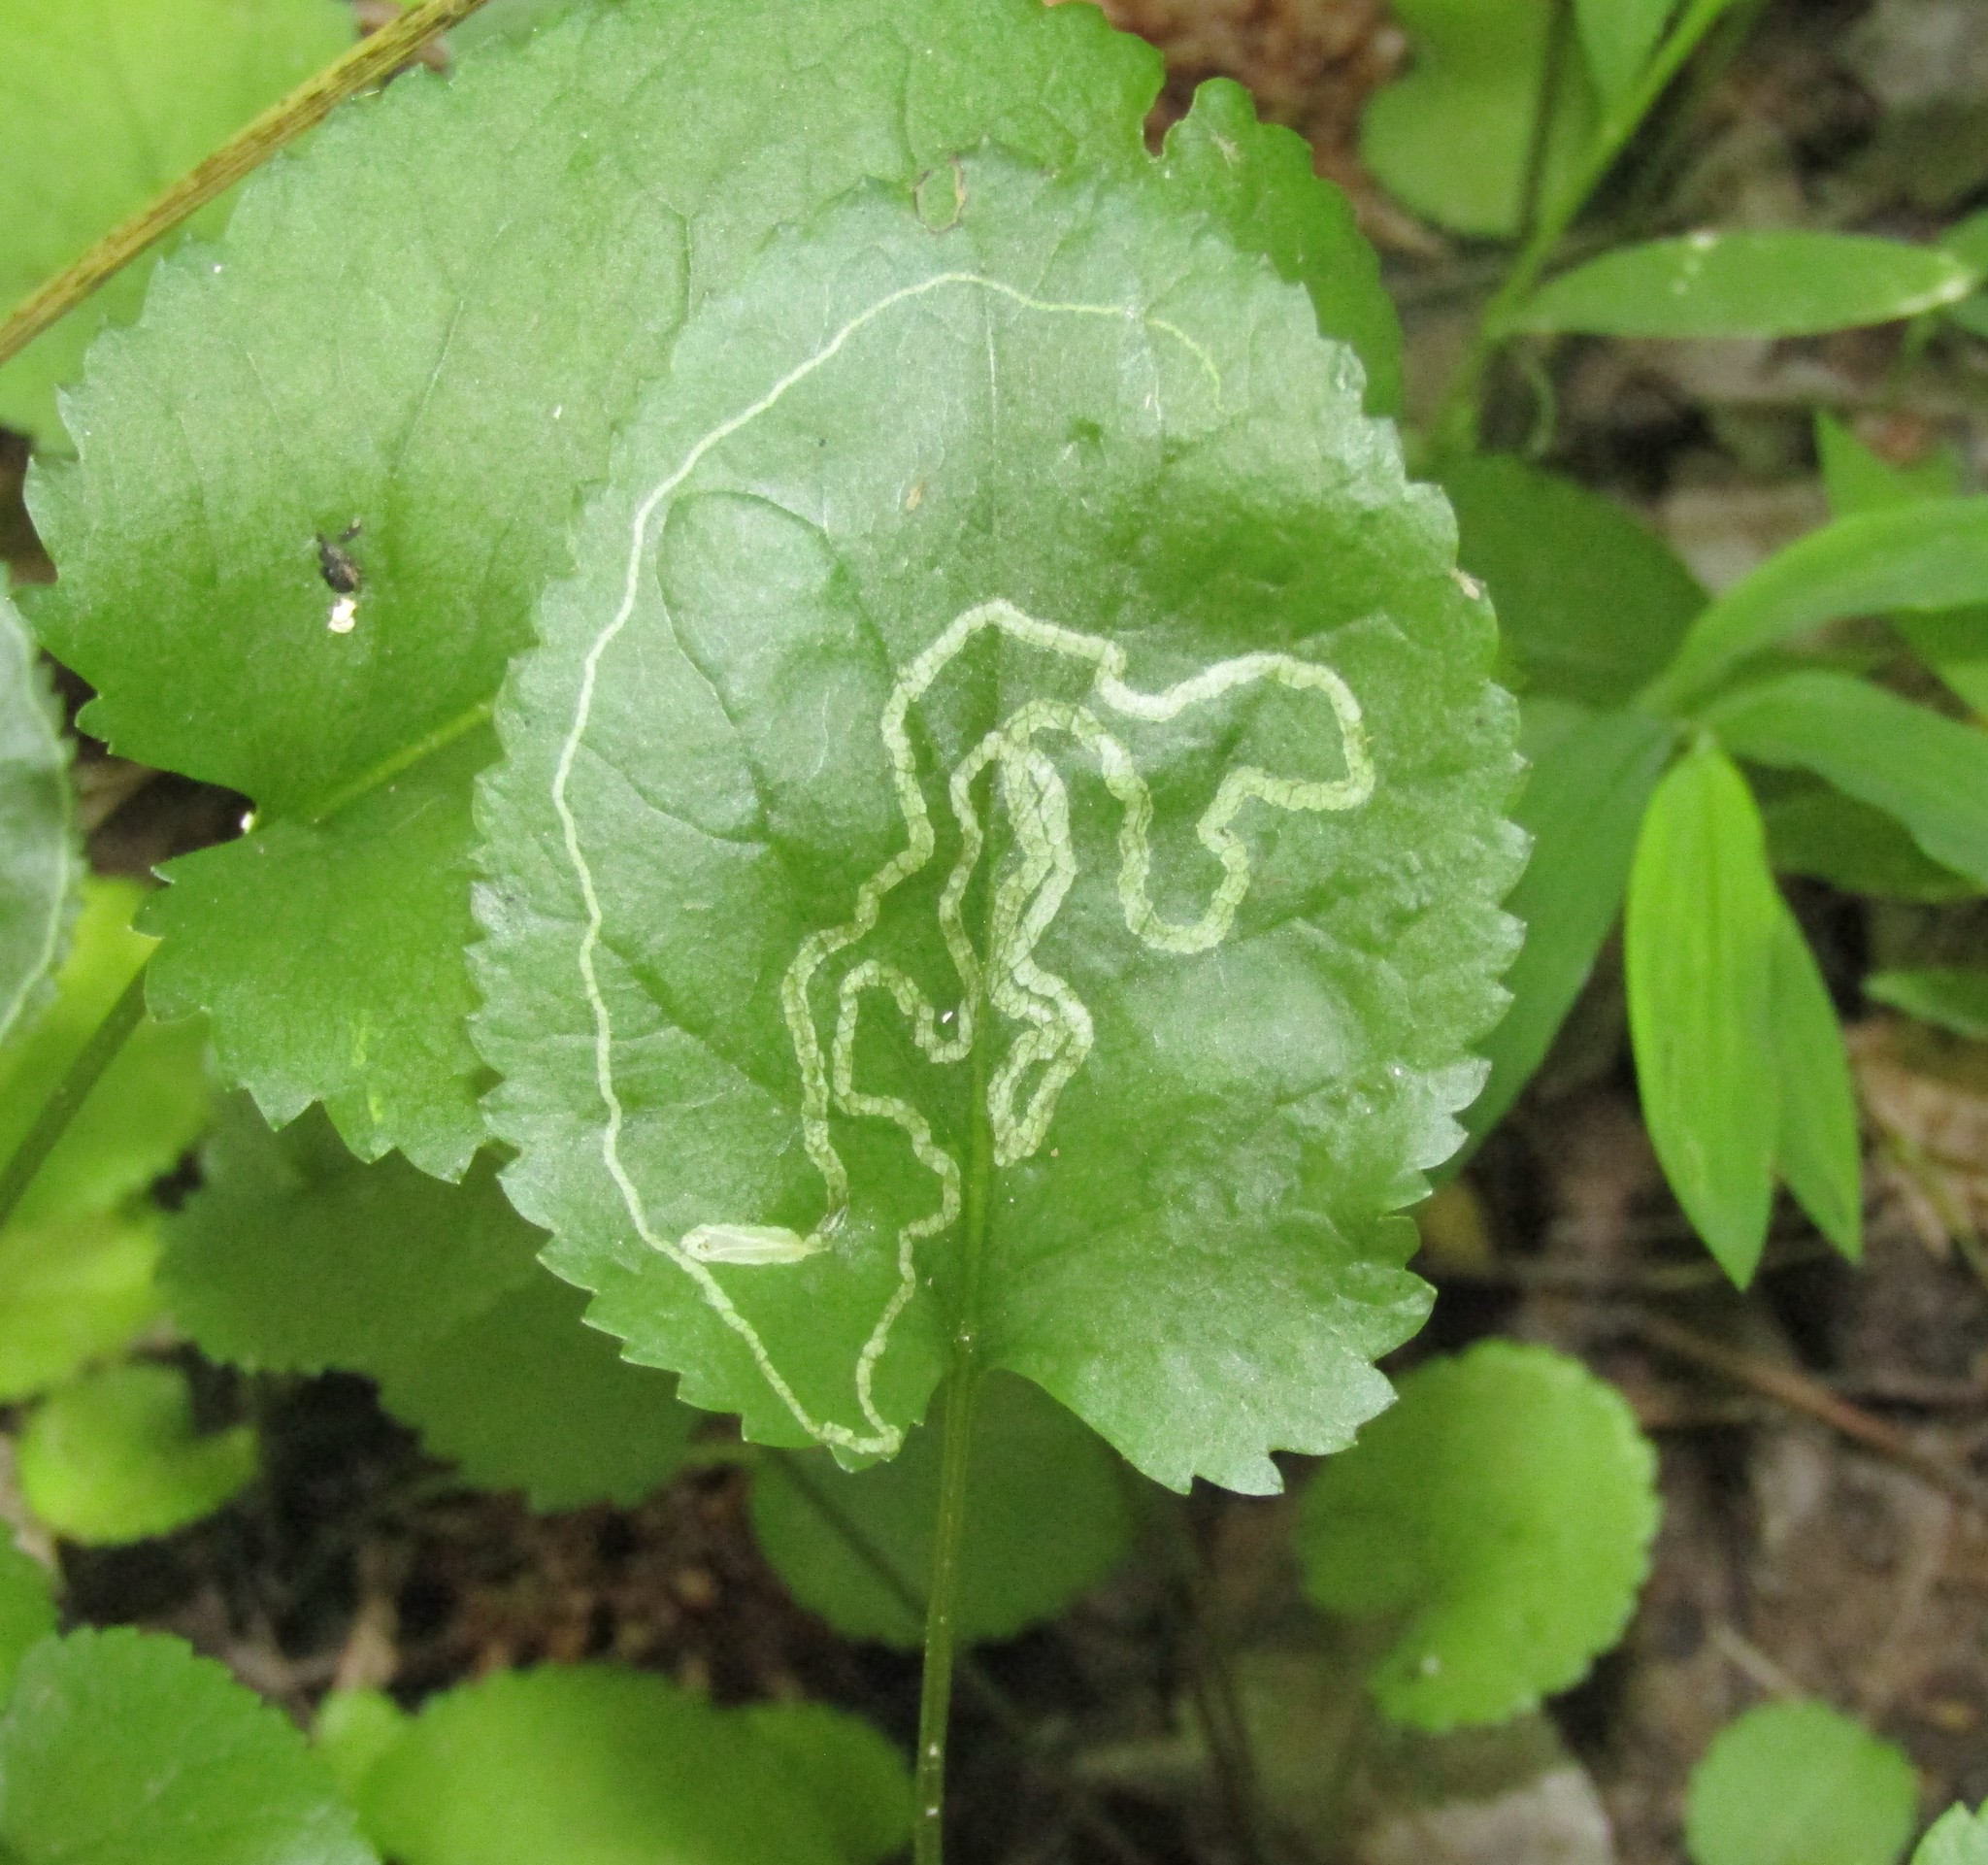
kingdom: Animalia
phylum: Arthropoda
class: Insecta
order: Lepidoptera
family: Gracillariidae
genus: Phyllocnistis
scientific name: Phyllocnistis insignis
